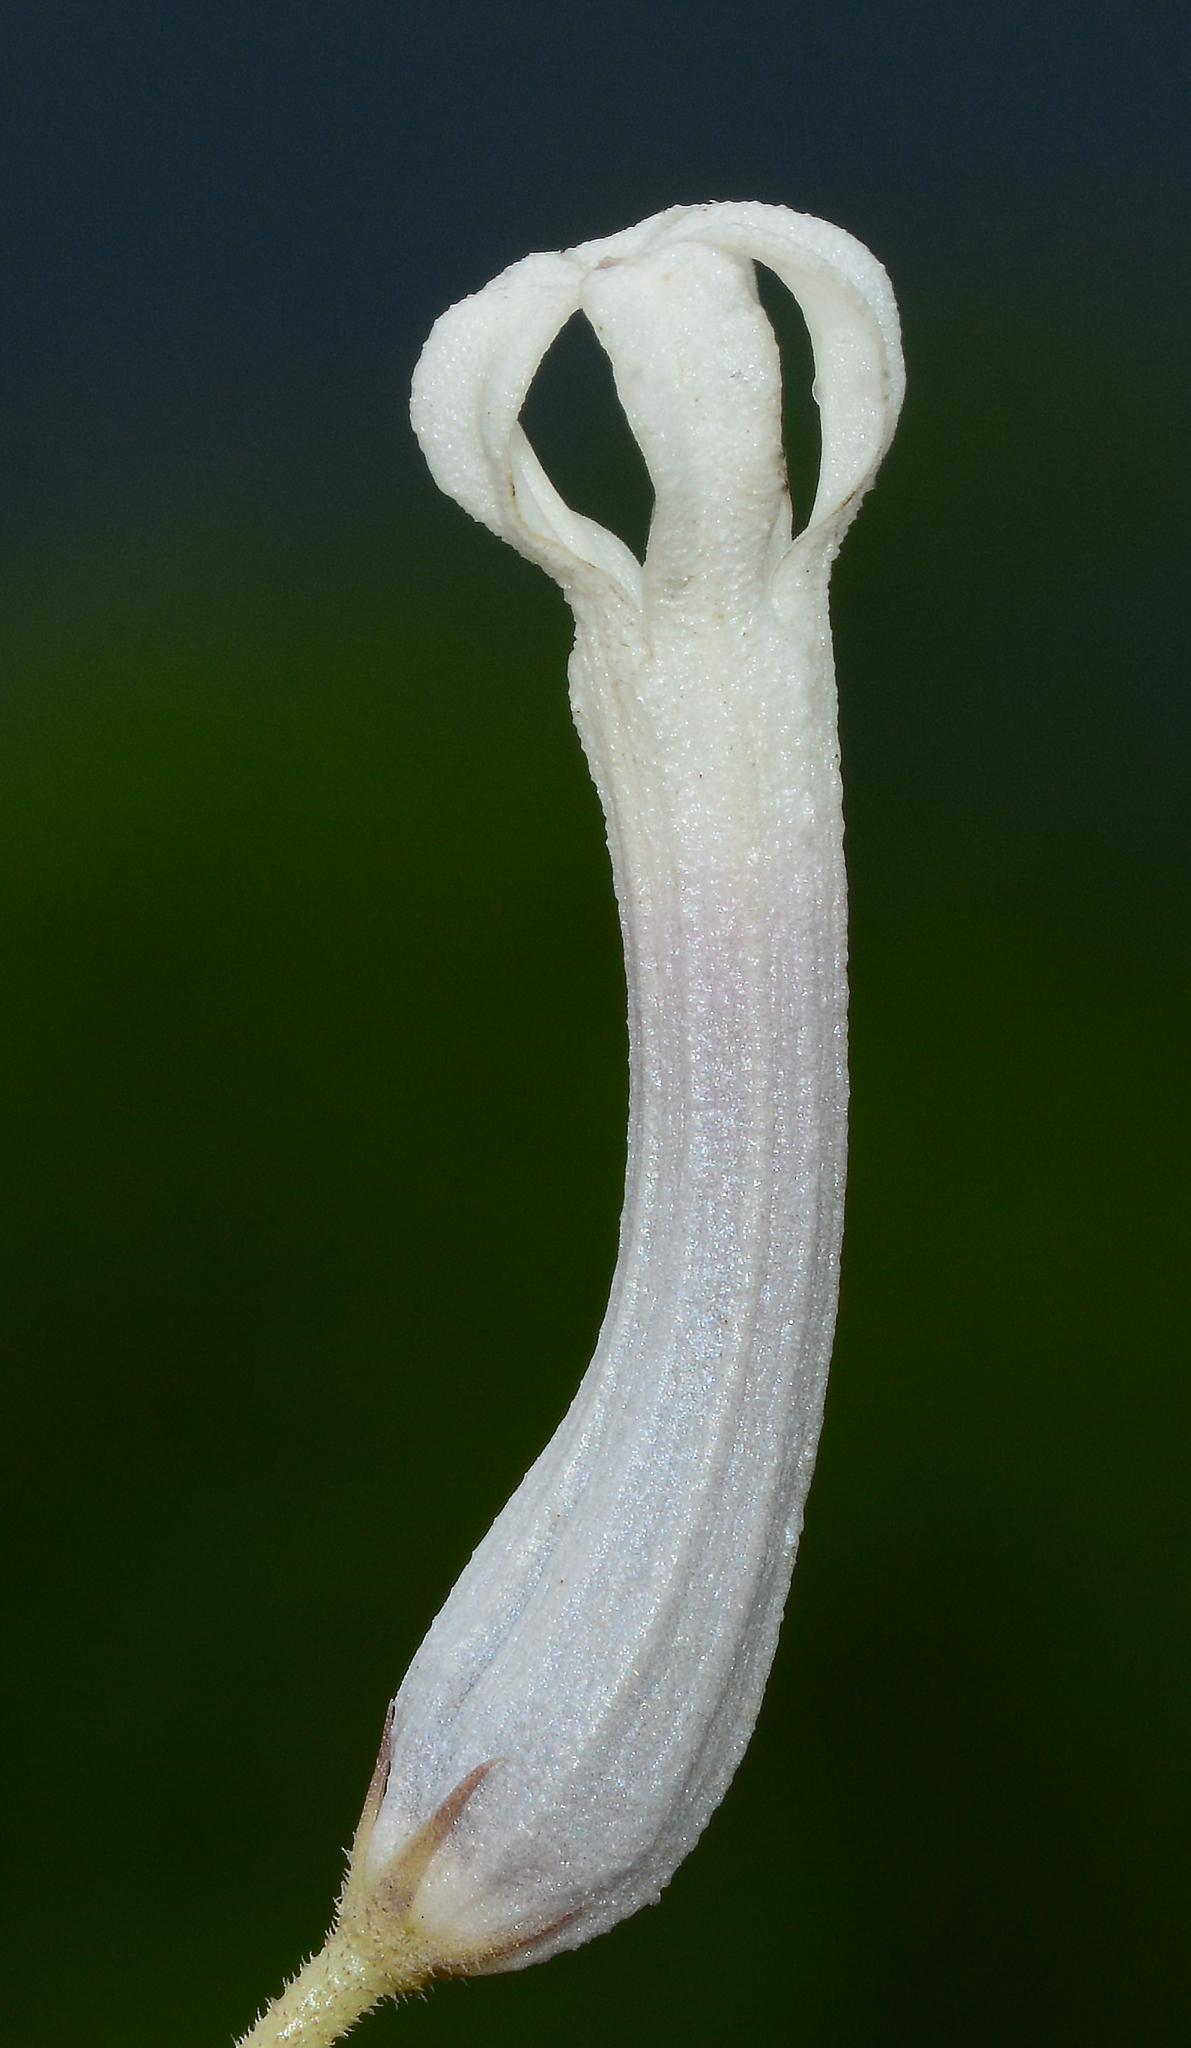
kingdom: Plantae
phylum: Tracheophyta
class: Magnoliopsida
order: Gentianales
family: Apocynaceae
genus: Ceropegia
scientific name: Ceropegia lawii
